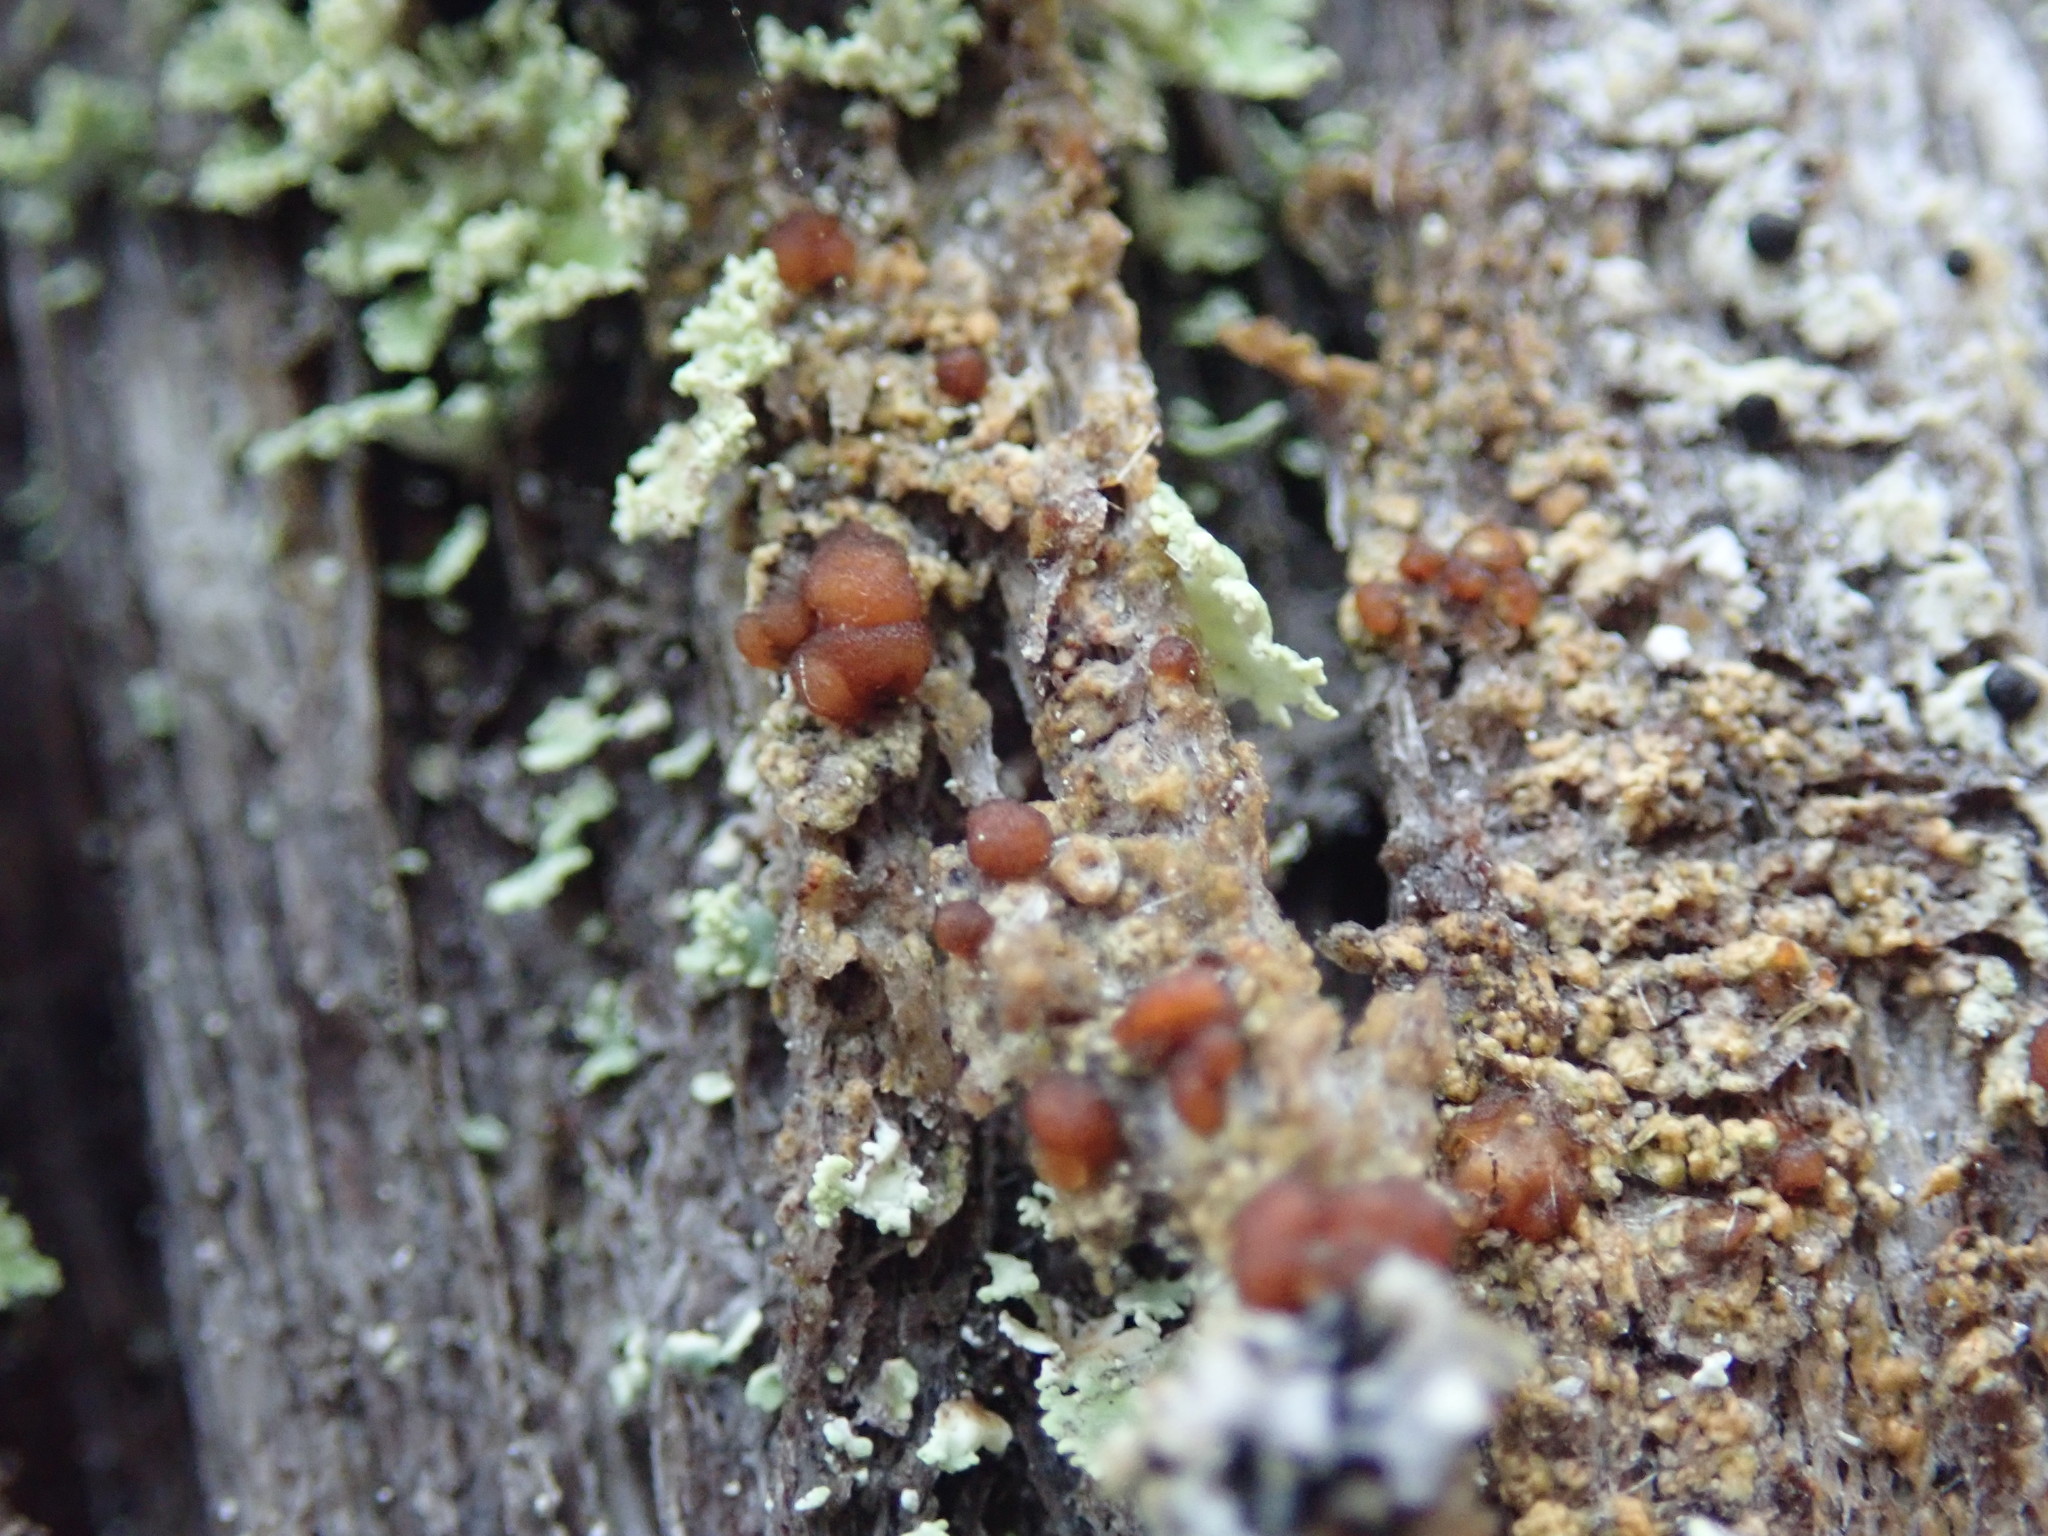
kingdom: Fungi
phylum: Ascomycota
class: Lecanoromycetes
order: Lecanorales
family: Lecanoraceae
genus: Japewia
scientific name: Japewia tornoensis
